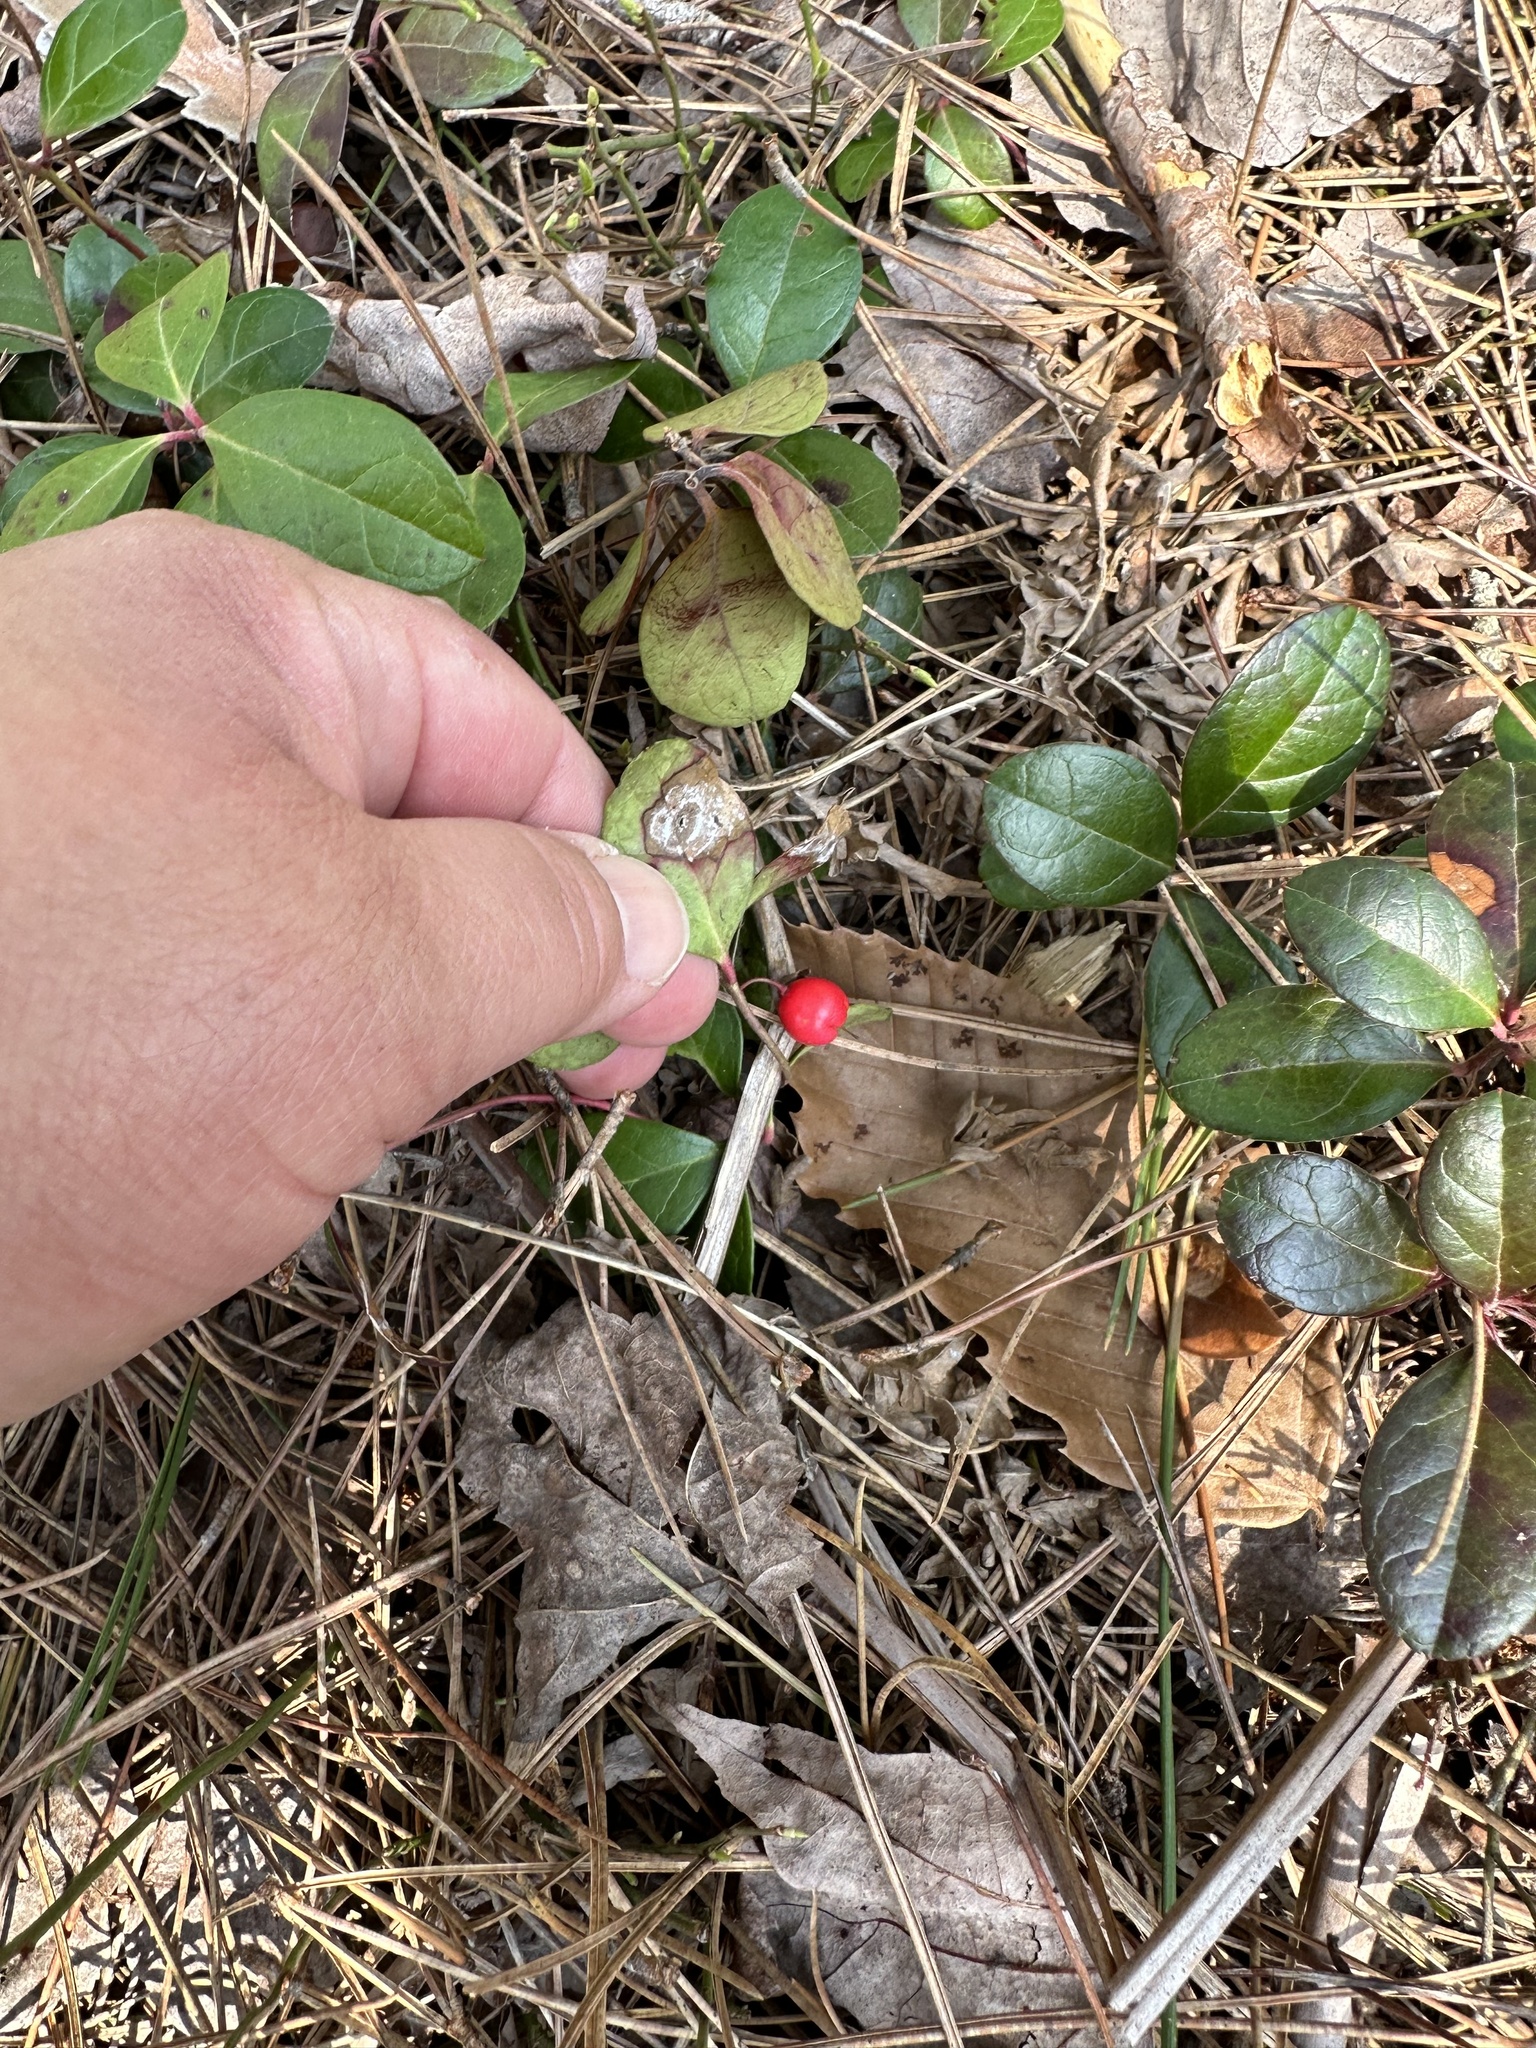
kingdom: Plantae
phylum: Tracheophyta
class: Magnoliopsida
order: Ericales
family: Ericaceae
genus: Gaultheria
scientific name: Gaultheria procumbens
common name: Checkerberry
